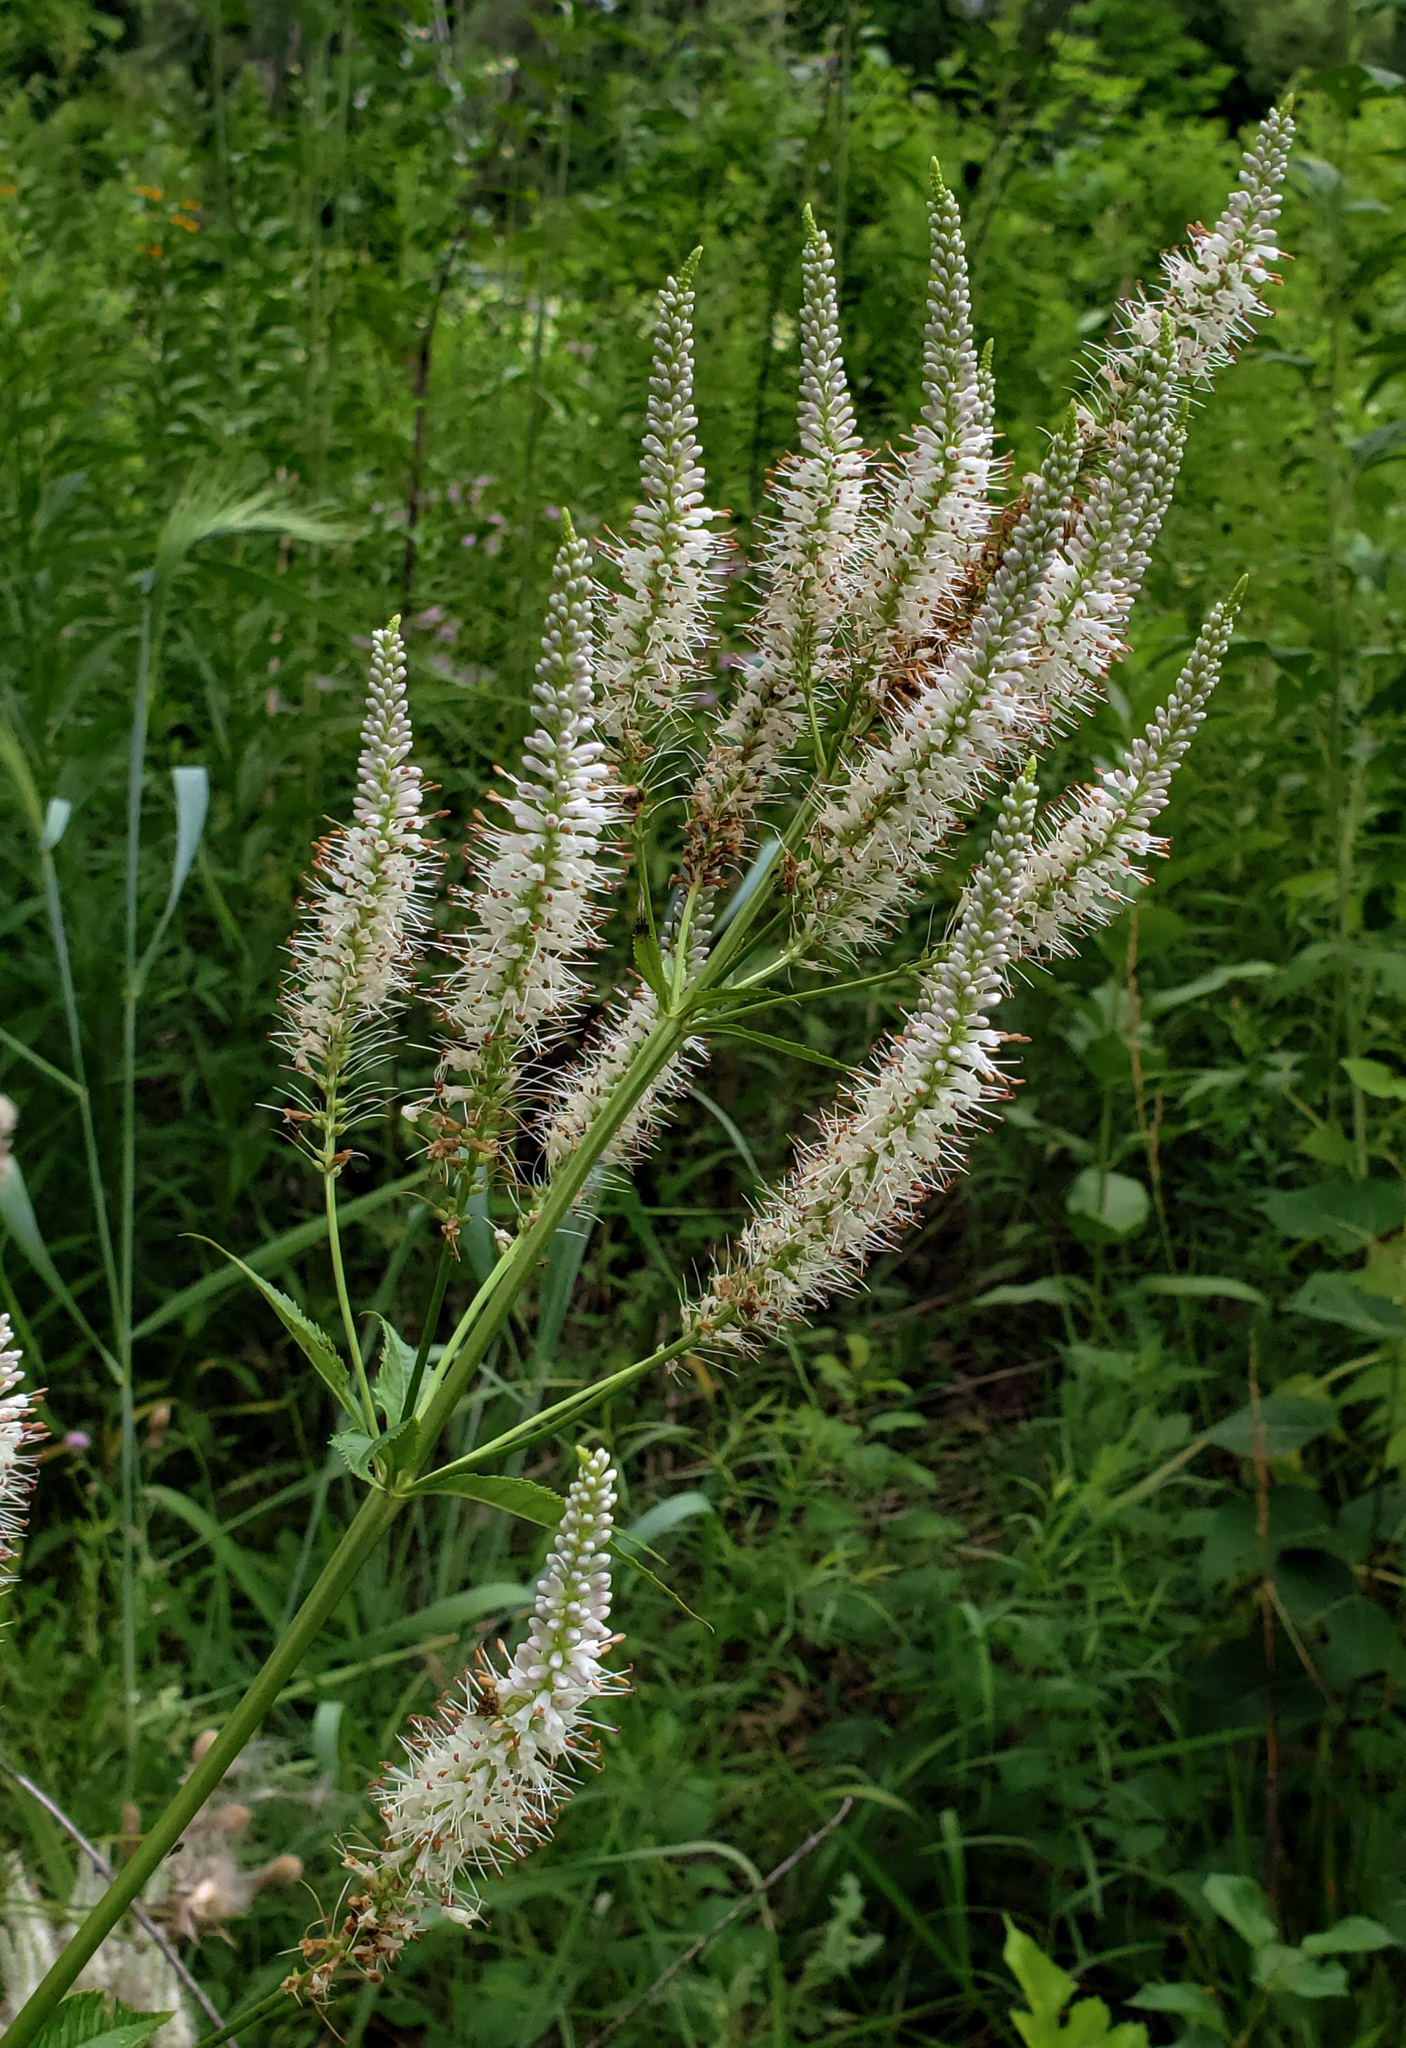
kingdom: Plantae
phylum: Tracheophyta
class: Magnoliopsida
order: Lamiales
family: Plantaginaceae
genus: Veronicastrum
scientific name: Veronicastrum virginicum
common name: Blackroot
